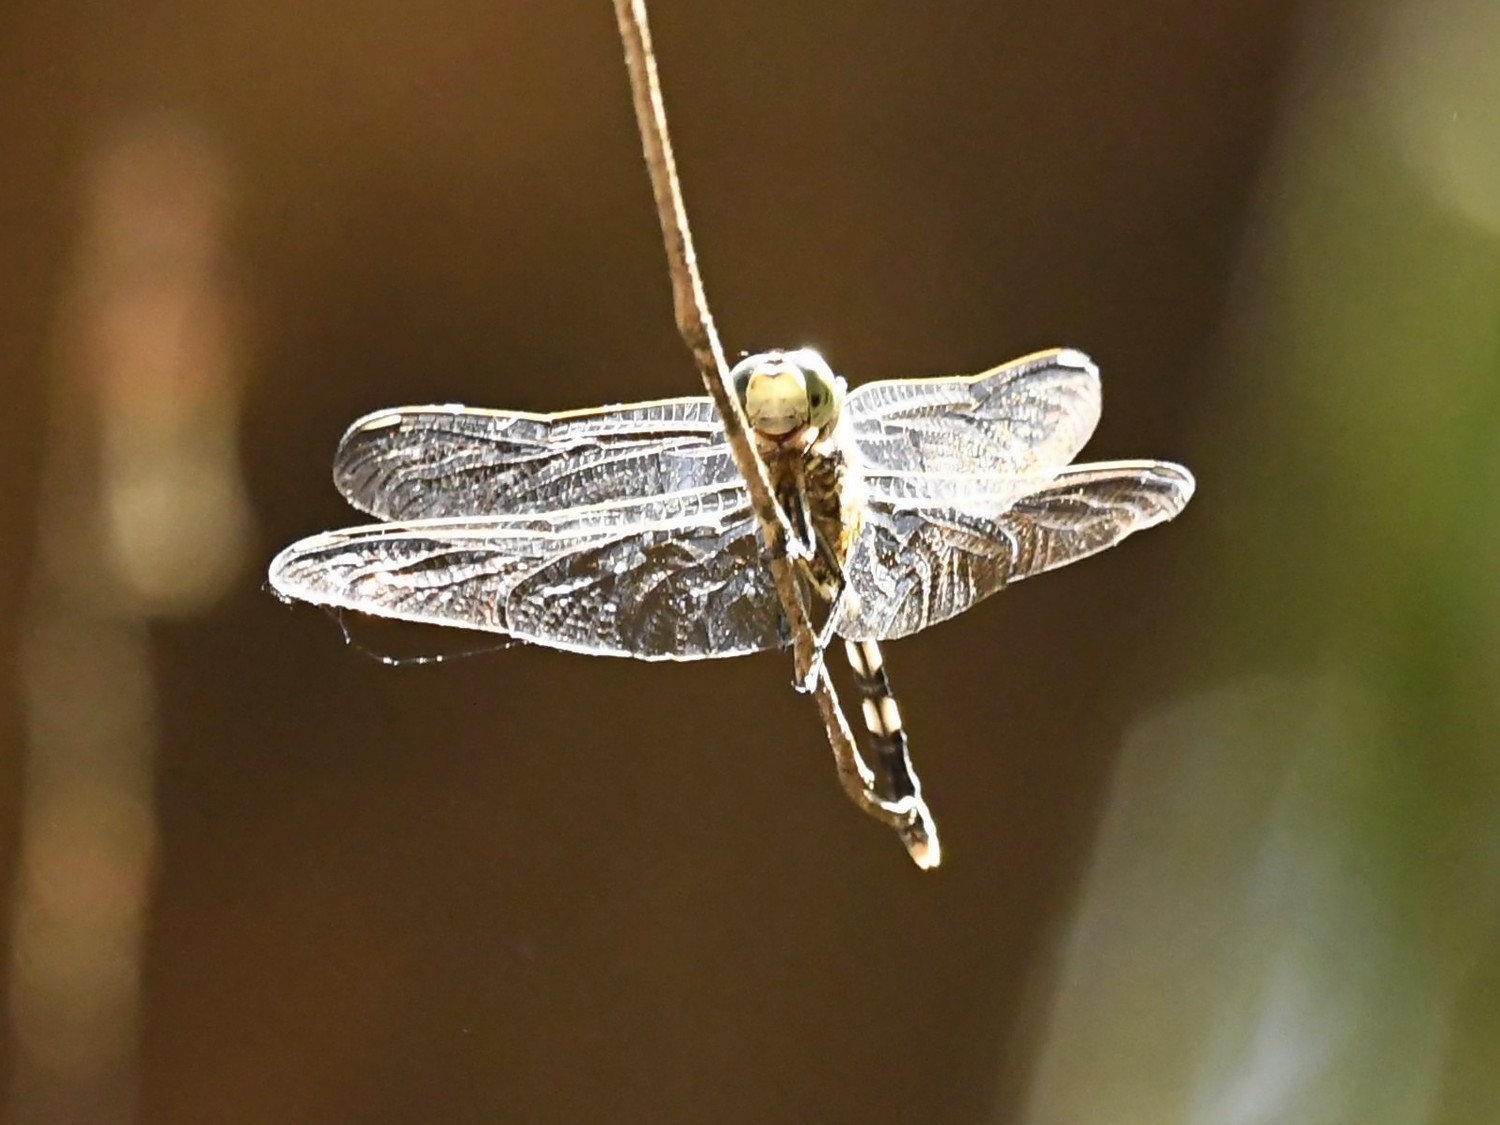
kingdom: Animalia
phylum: Arthropoda
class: Insecta
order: Odonata
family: Libellulidae
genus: Orthetrum
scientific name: Orthetrum sabina
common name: Slender skimmer
